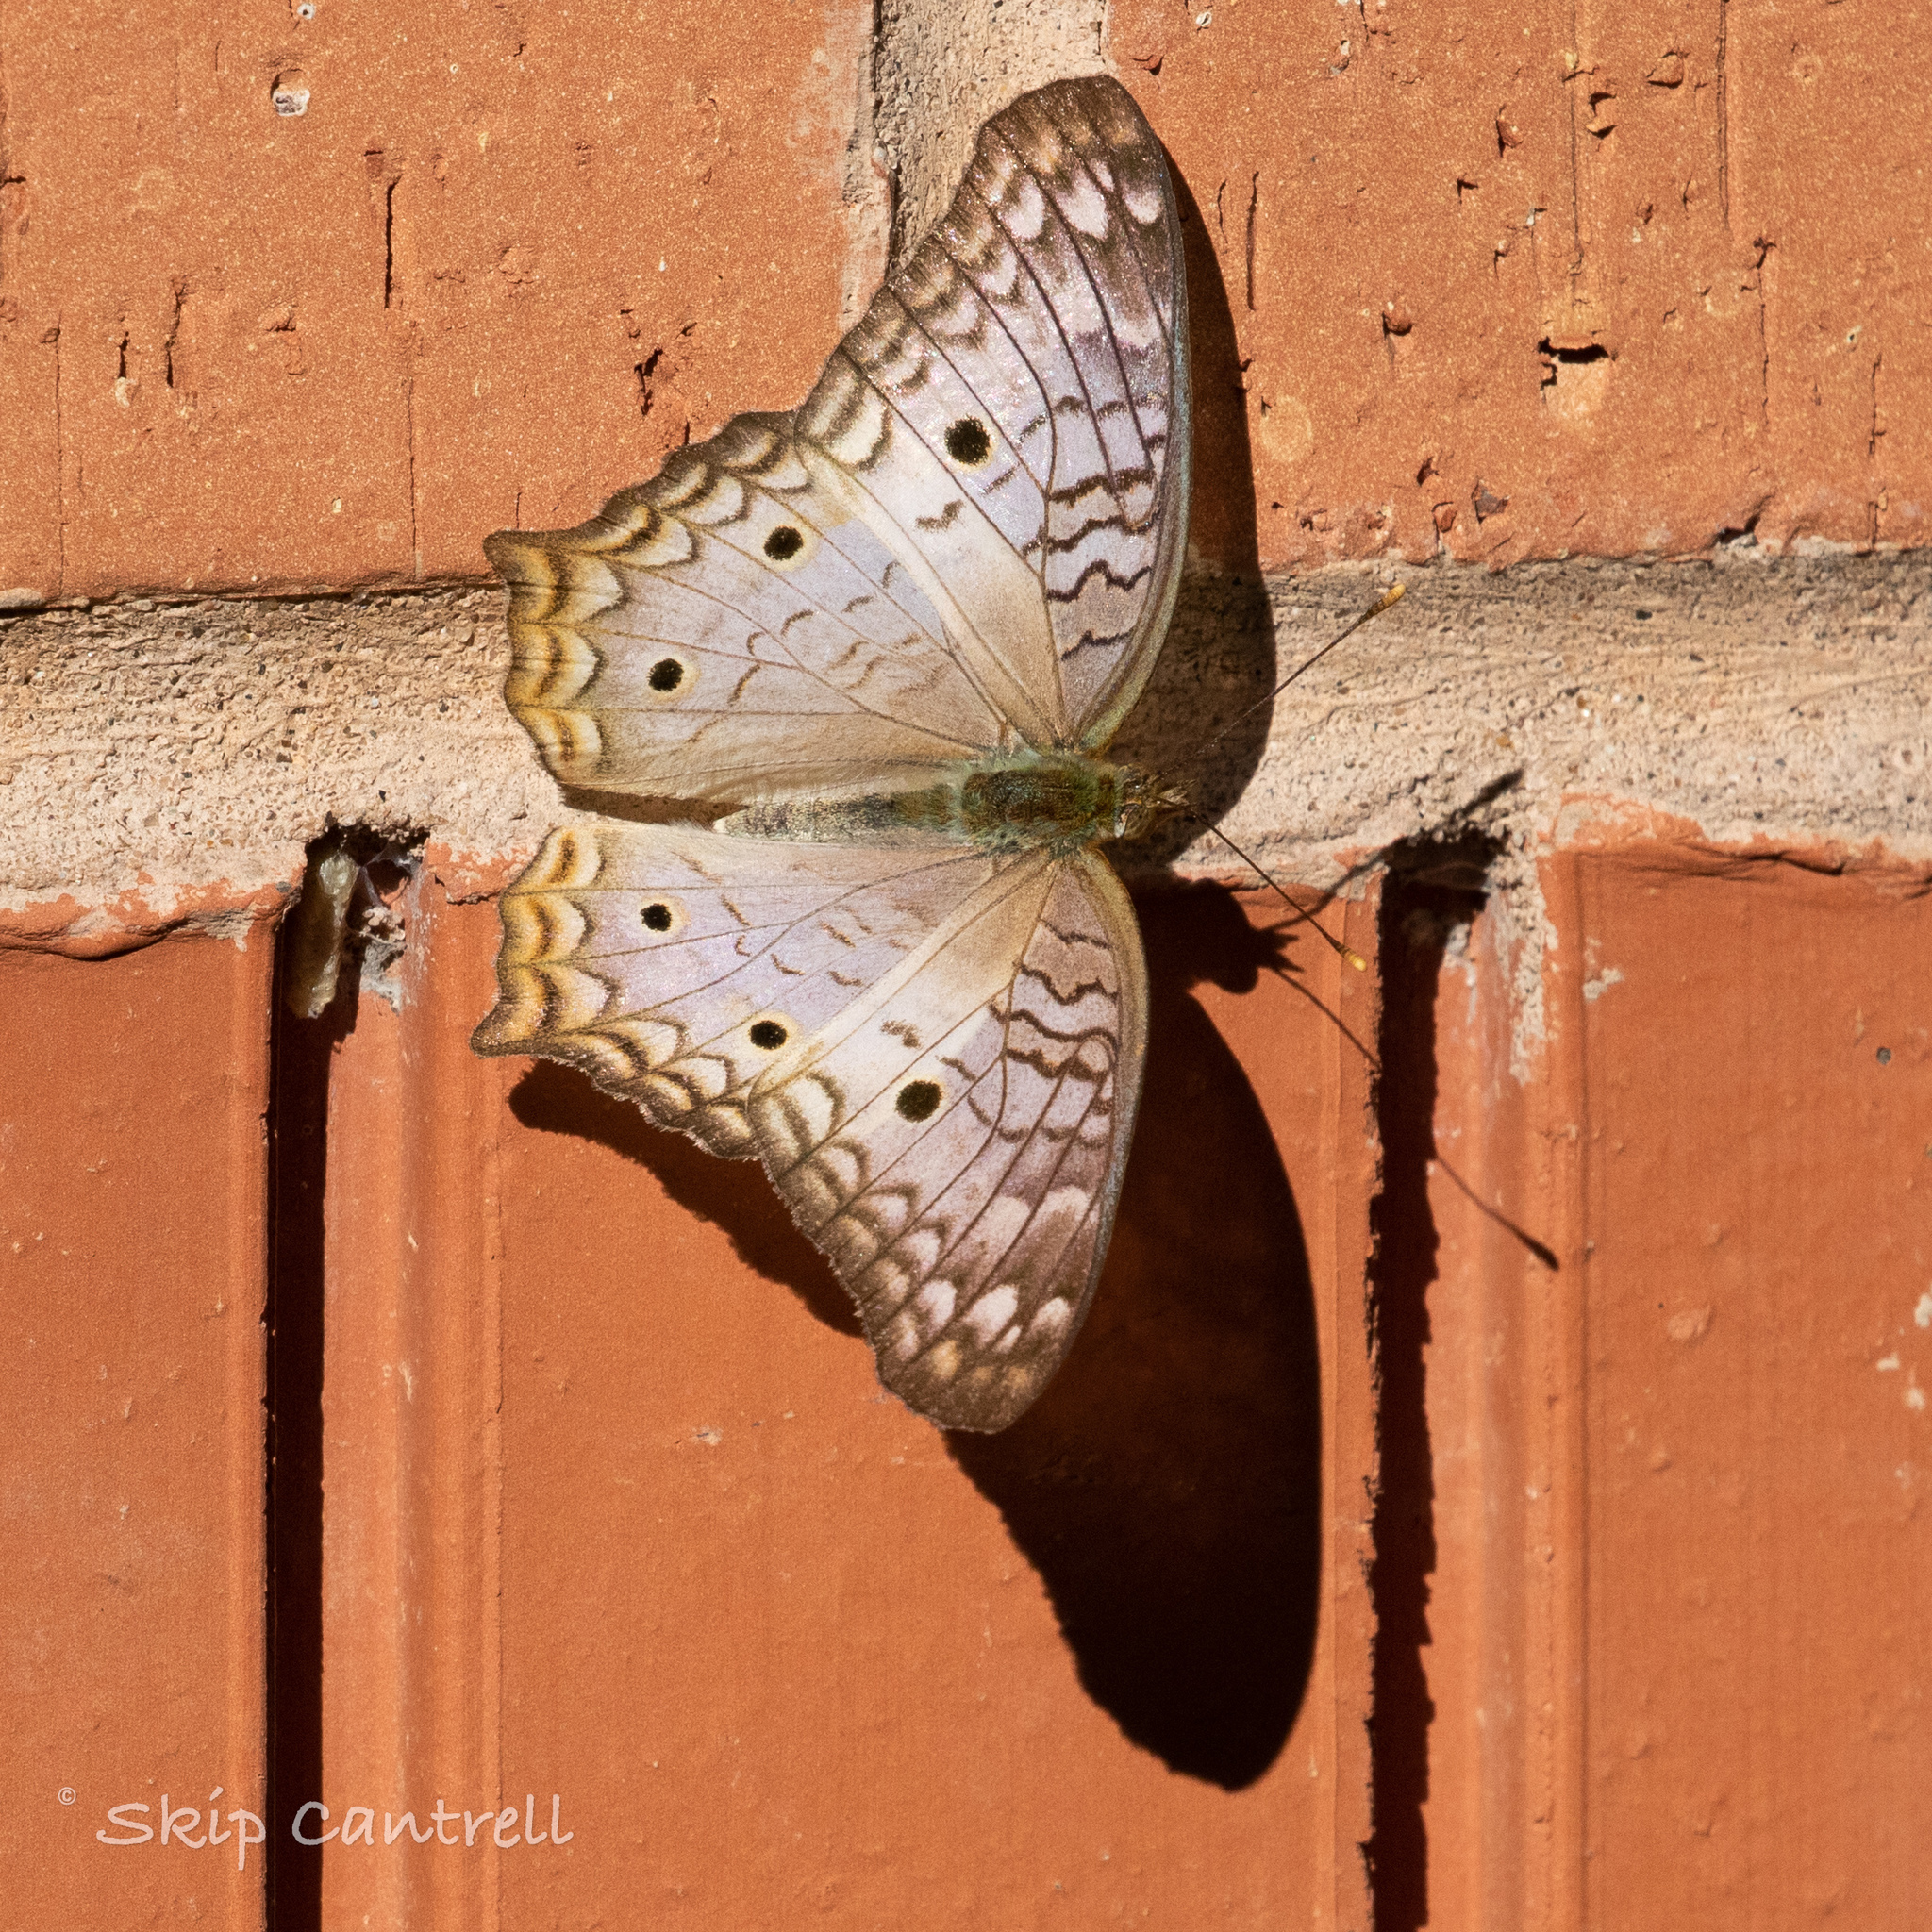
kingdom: Animalia
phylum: Arthropoda
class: Insecta
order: Lepidoptera
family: Nymphalidae
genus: Anartia
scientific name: Anartia jatrophae
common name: White peacock
